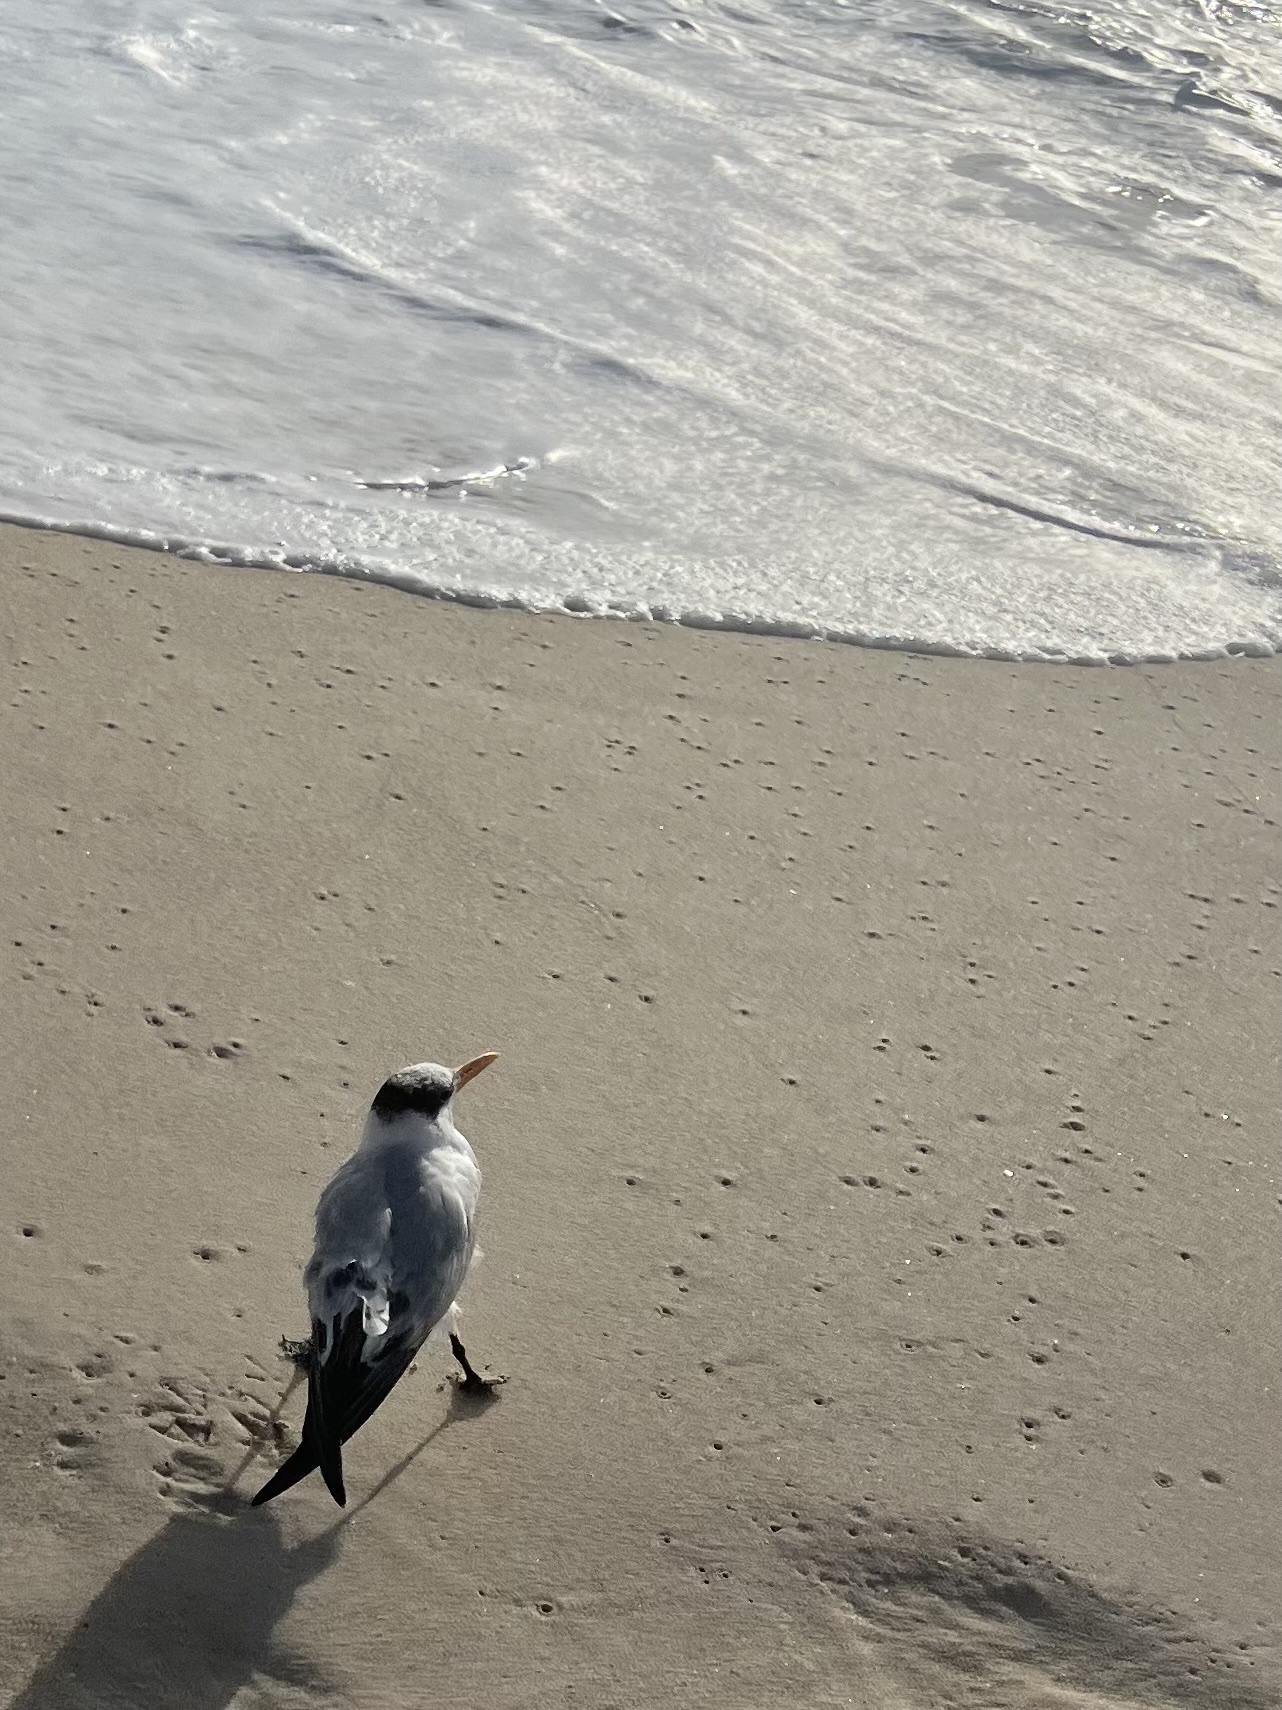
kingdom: Animalia
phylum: Chordata
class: Aves
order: Charadriiformes
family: Laridae
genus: Thalasseus
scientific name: Thalasseus maximus
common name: Royal tern
